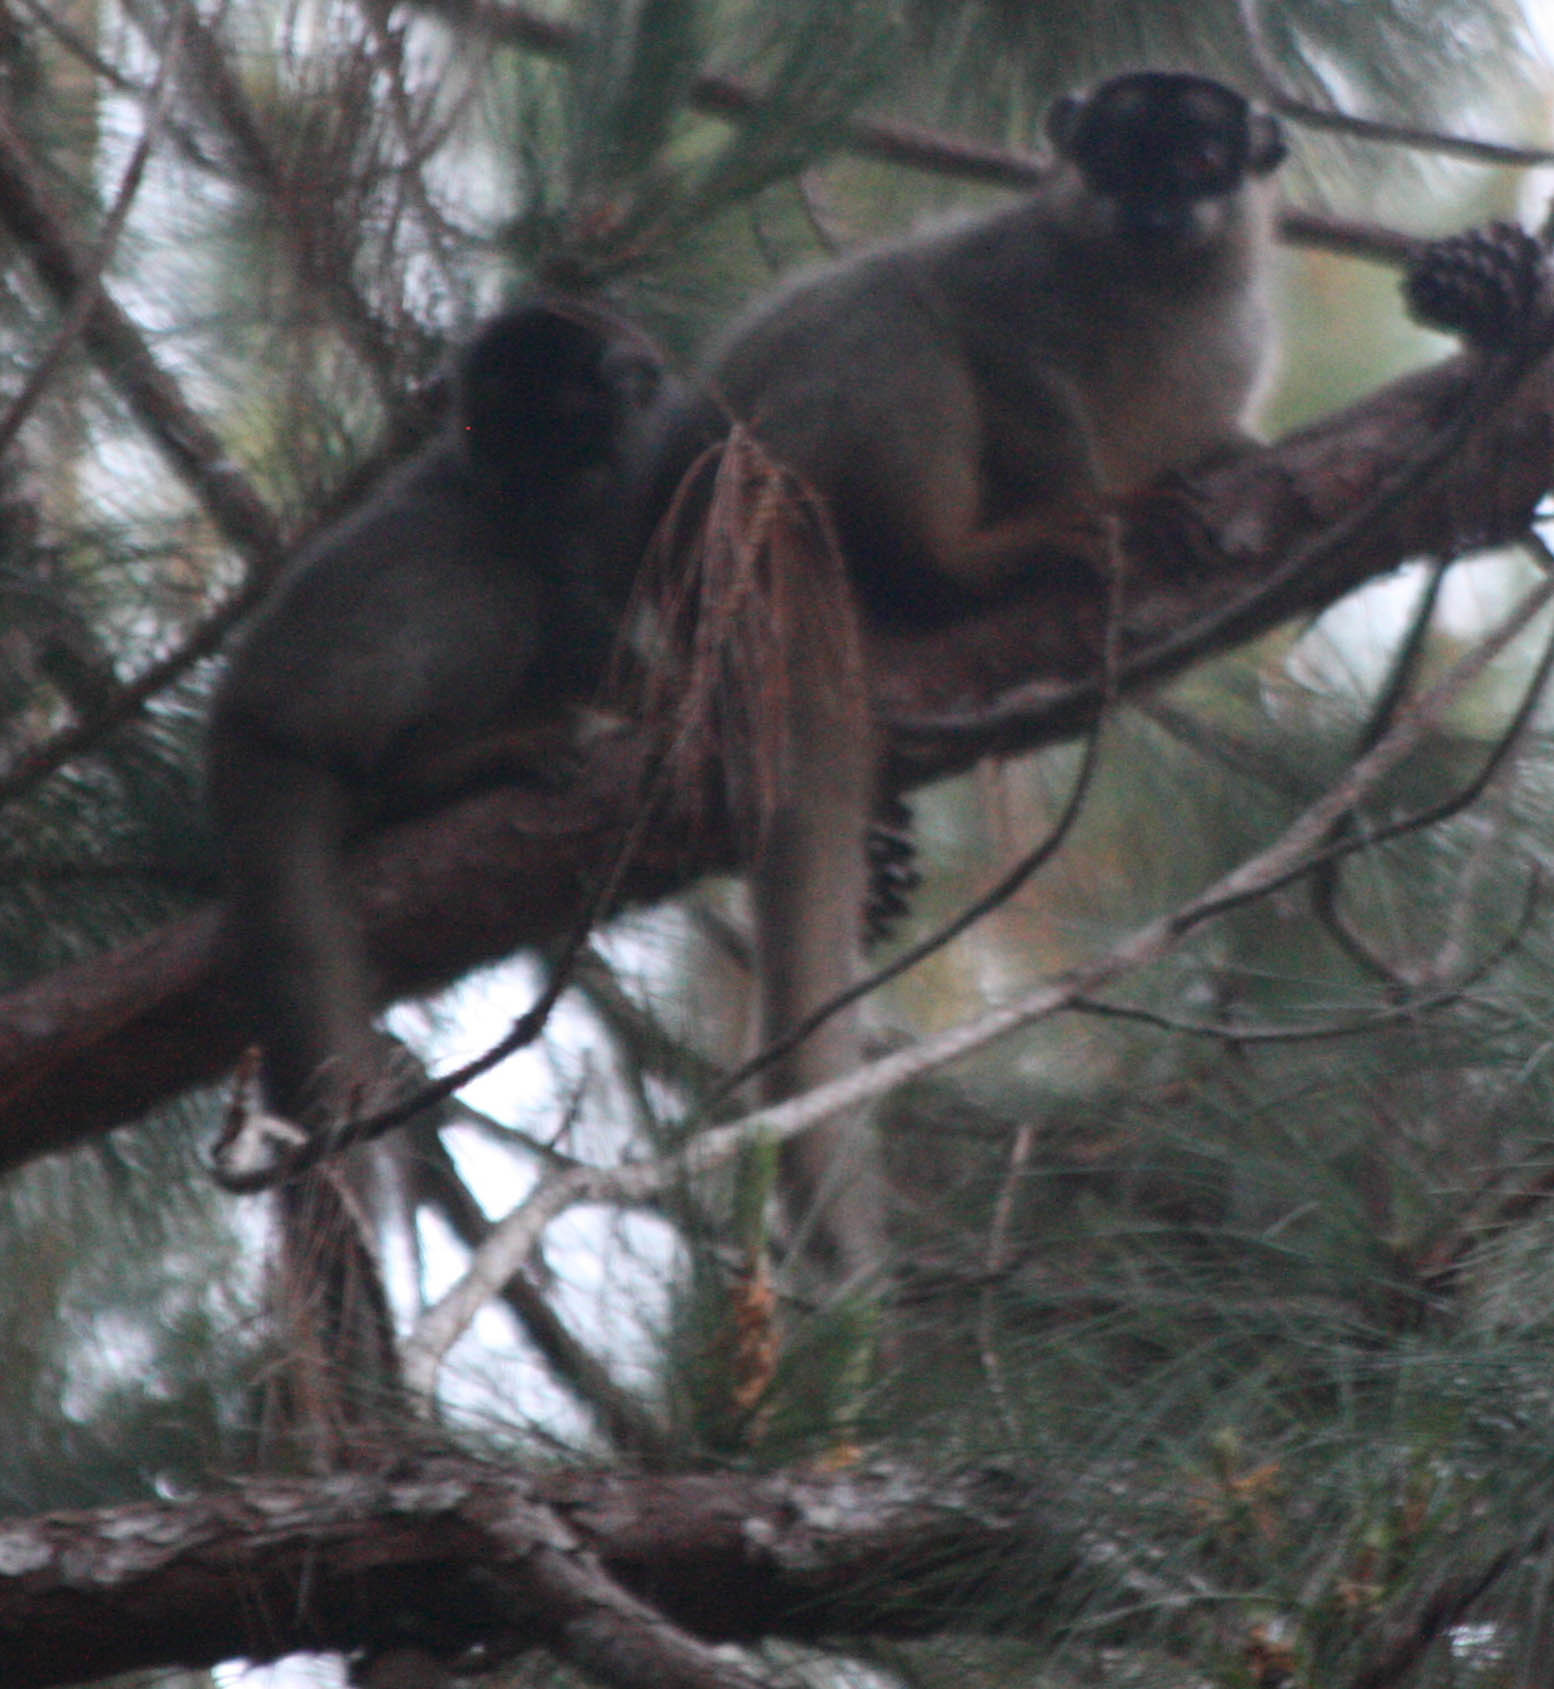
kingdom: Animalia
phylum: Chordata
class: Mammalia
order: Primates
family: Lemuridae
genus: Eulemur
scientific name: Eulemur fulvus
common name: Brown lemur
